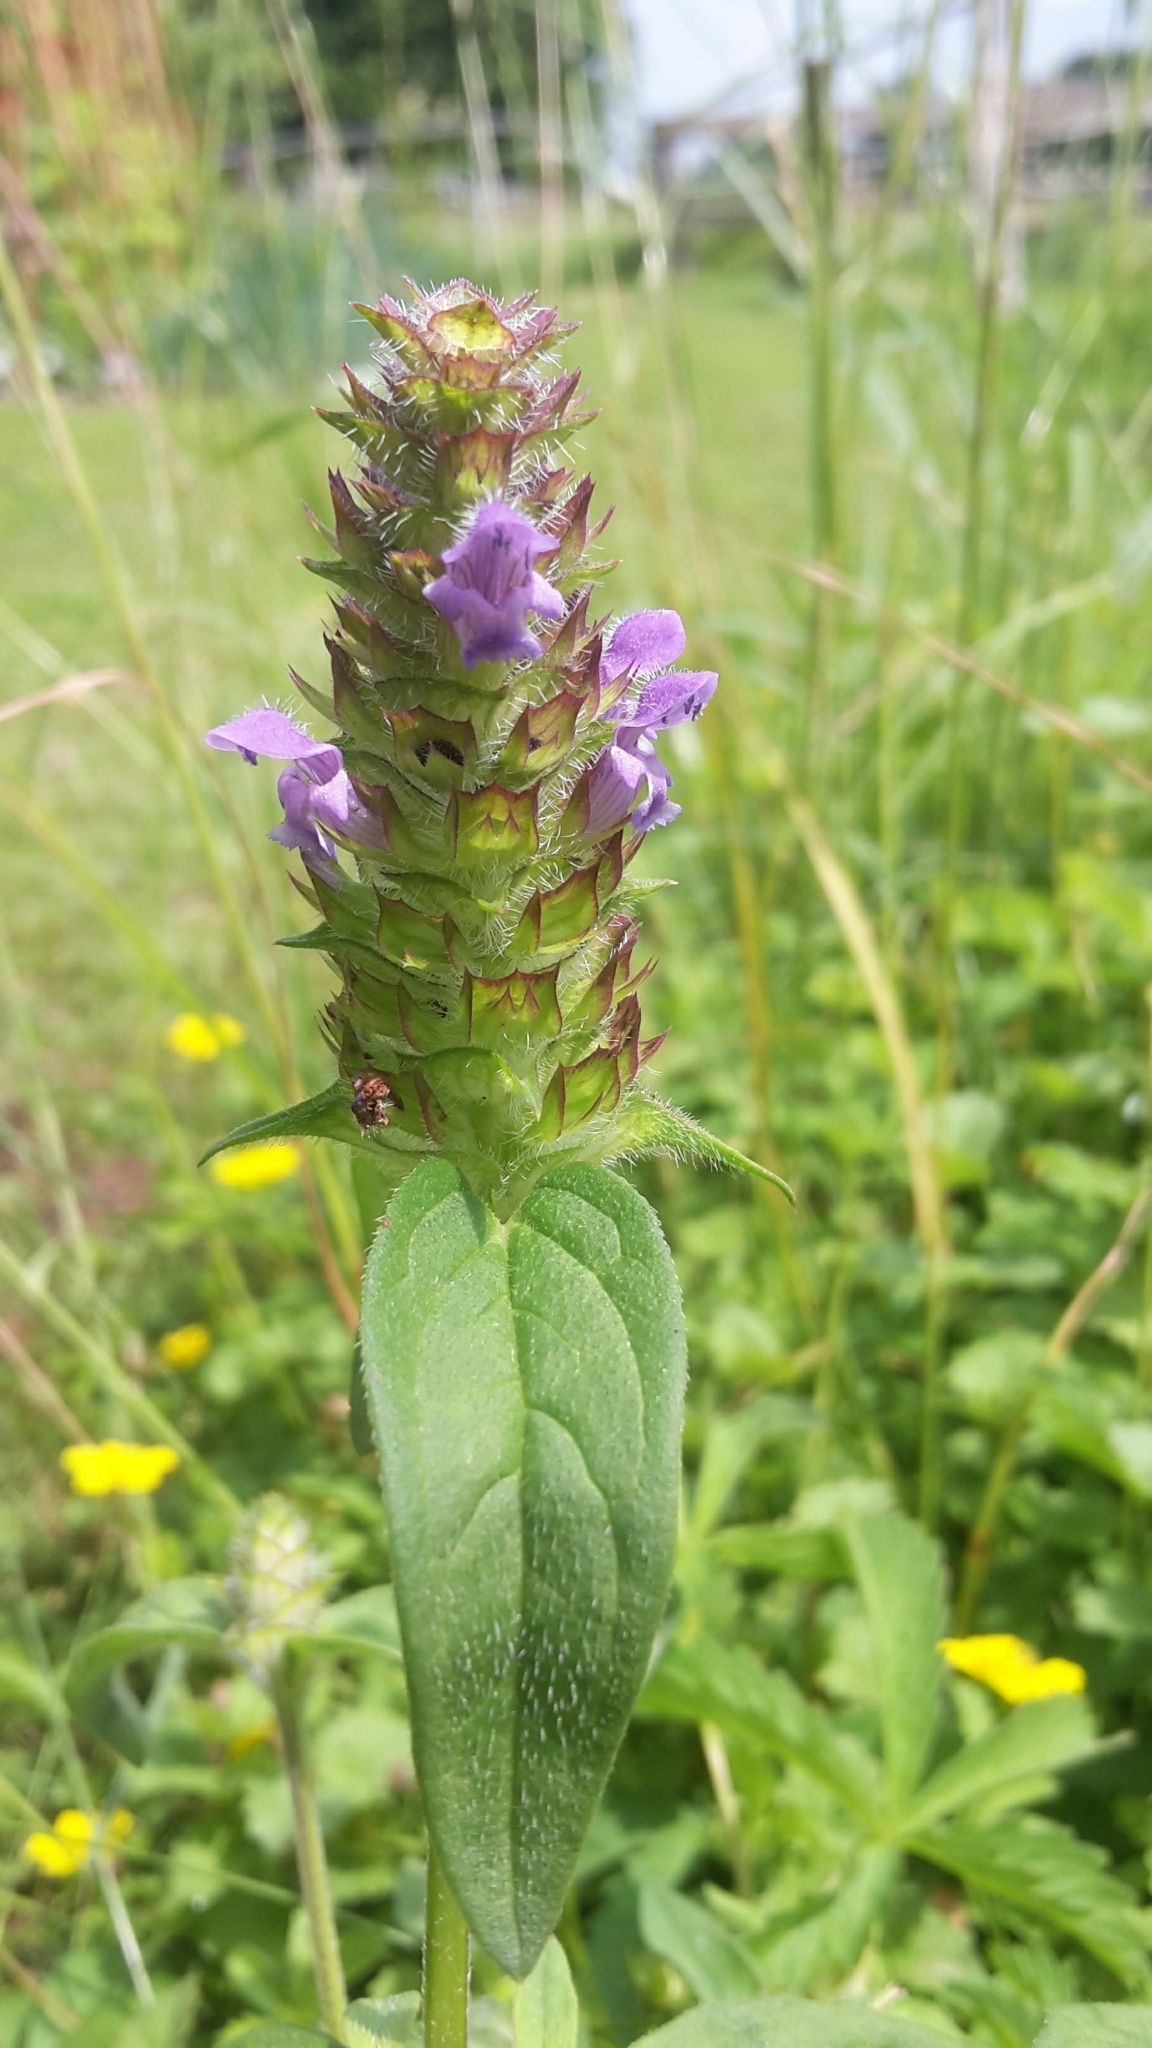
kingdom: Plantae
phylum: Tracheophyta
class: Magnoliopsida
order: Lamiales
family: Lamiaceae
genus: Prunella
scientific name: Prunella vulgaris
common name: Heal-all
